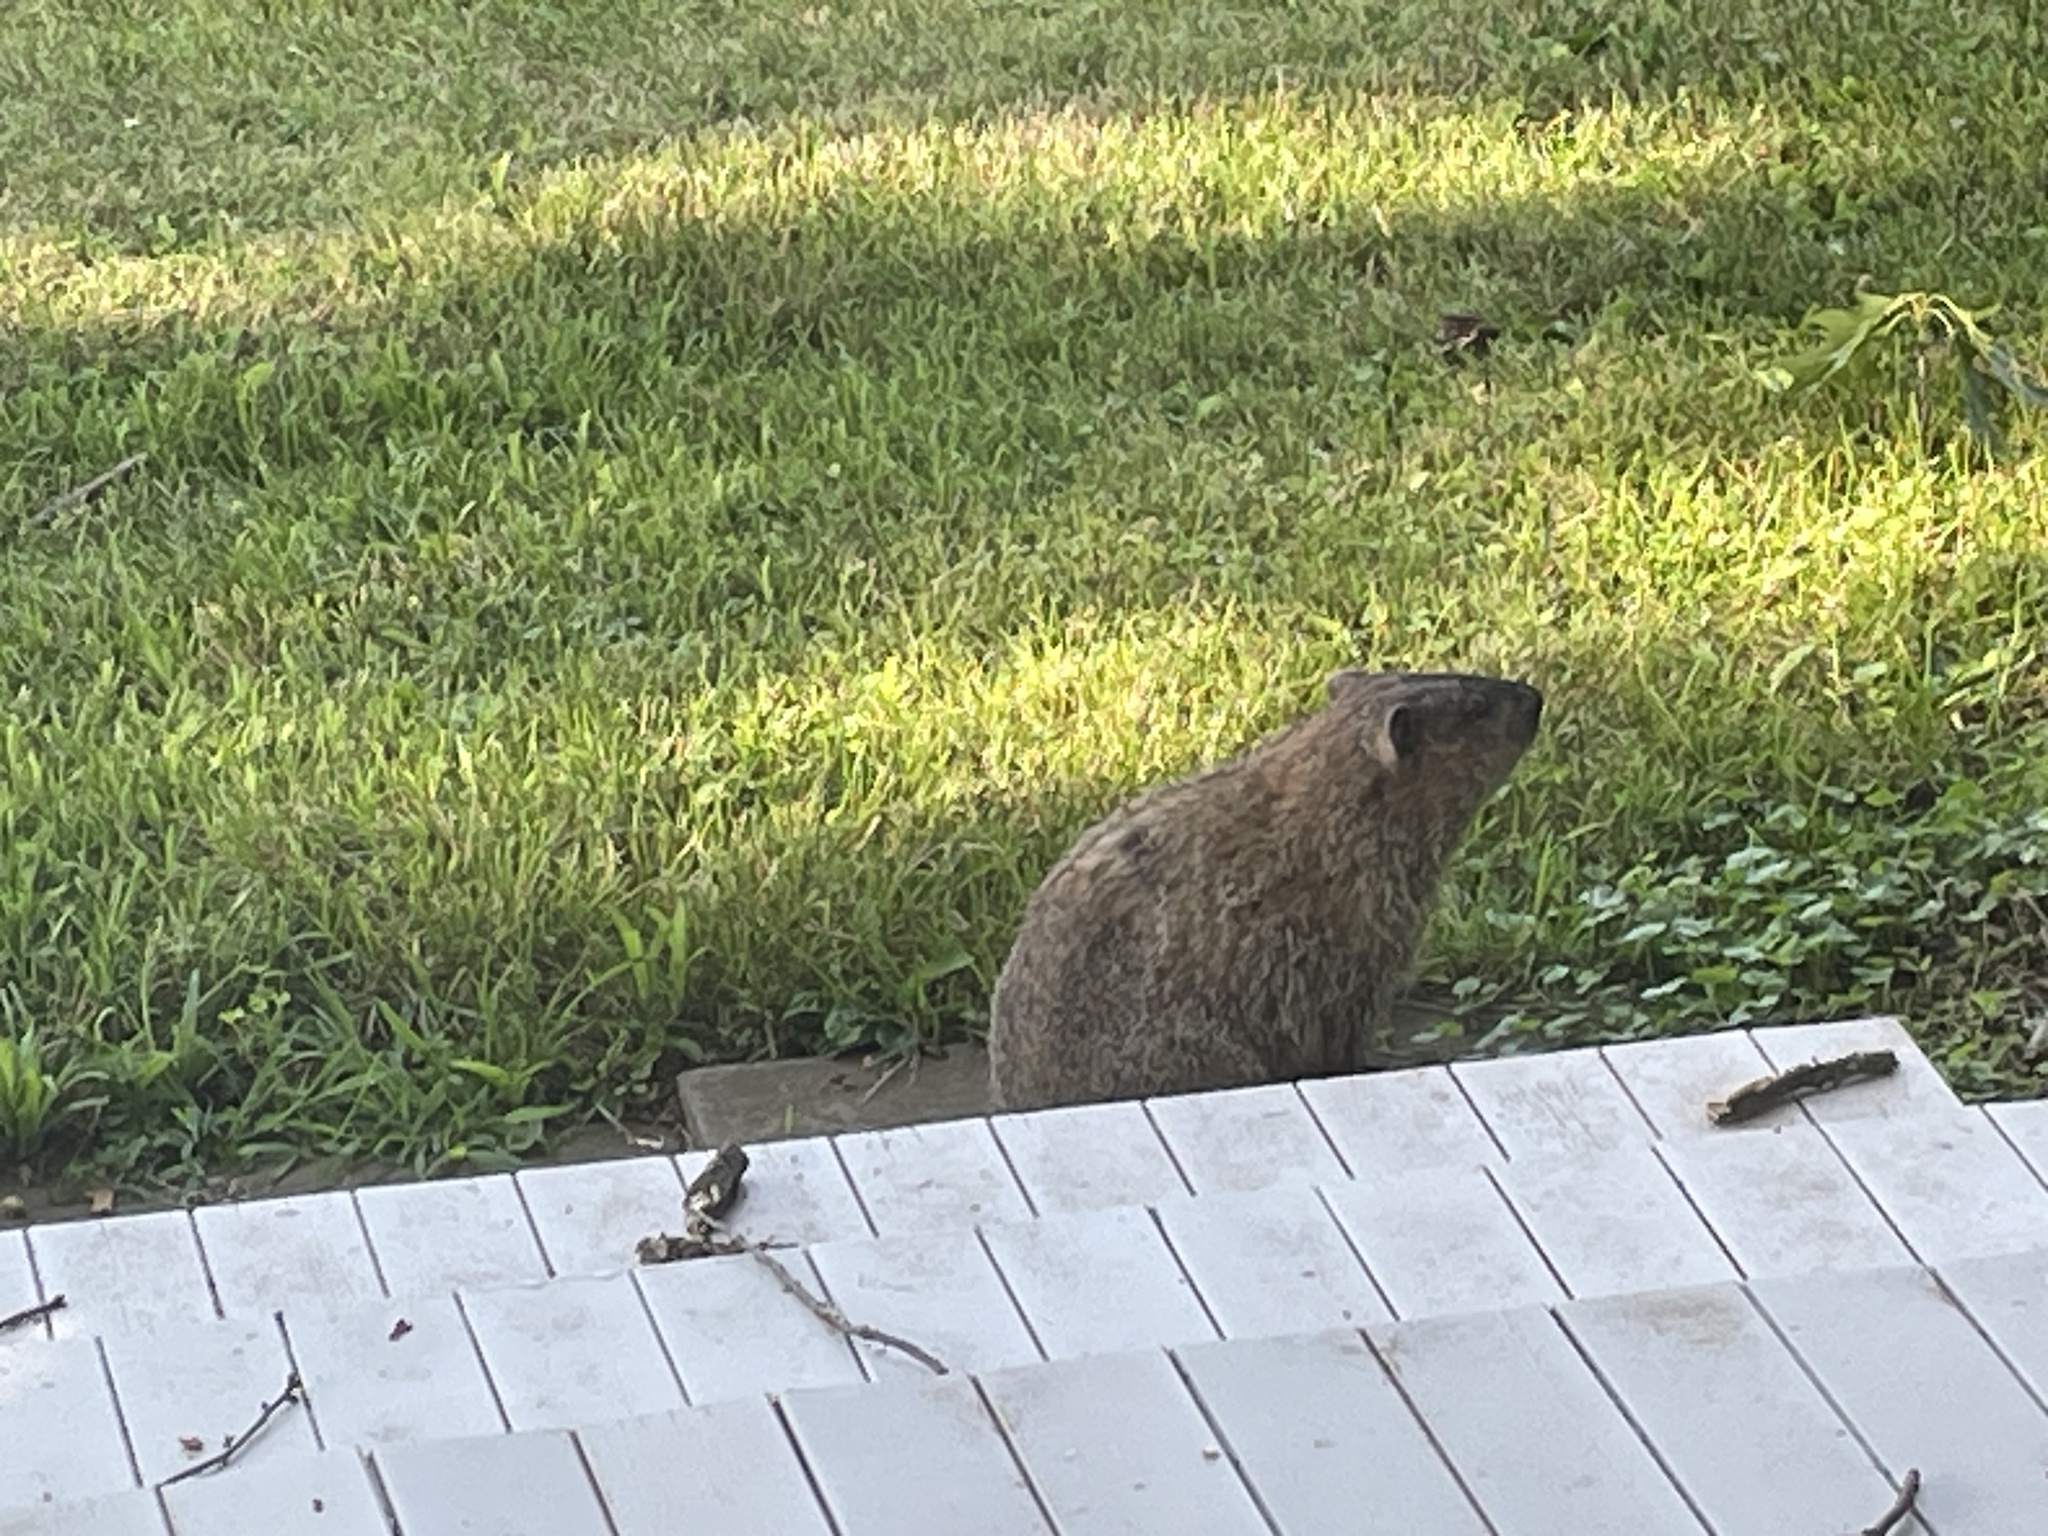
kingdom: Animalia
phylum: Chordata
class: Mammalia
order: Rodentia
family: Sciuridae
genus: Marmota
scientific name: Marmota monax
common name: Groundhog
